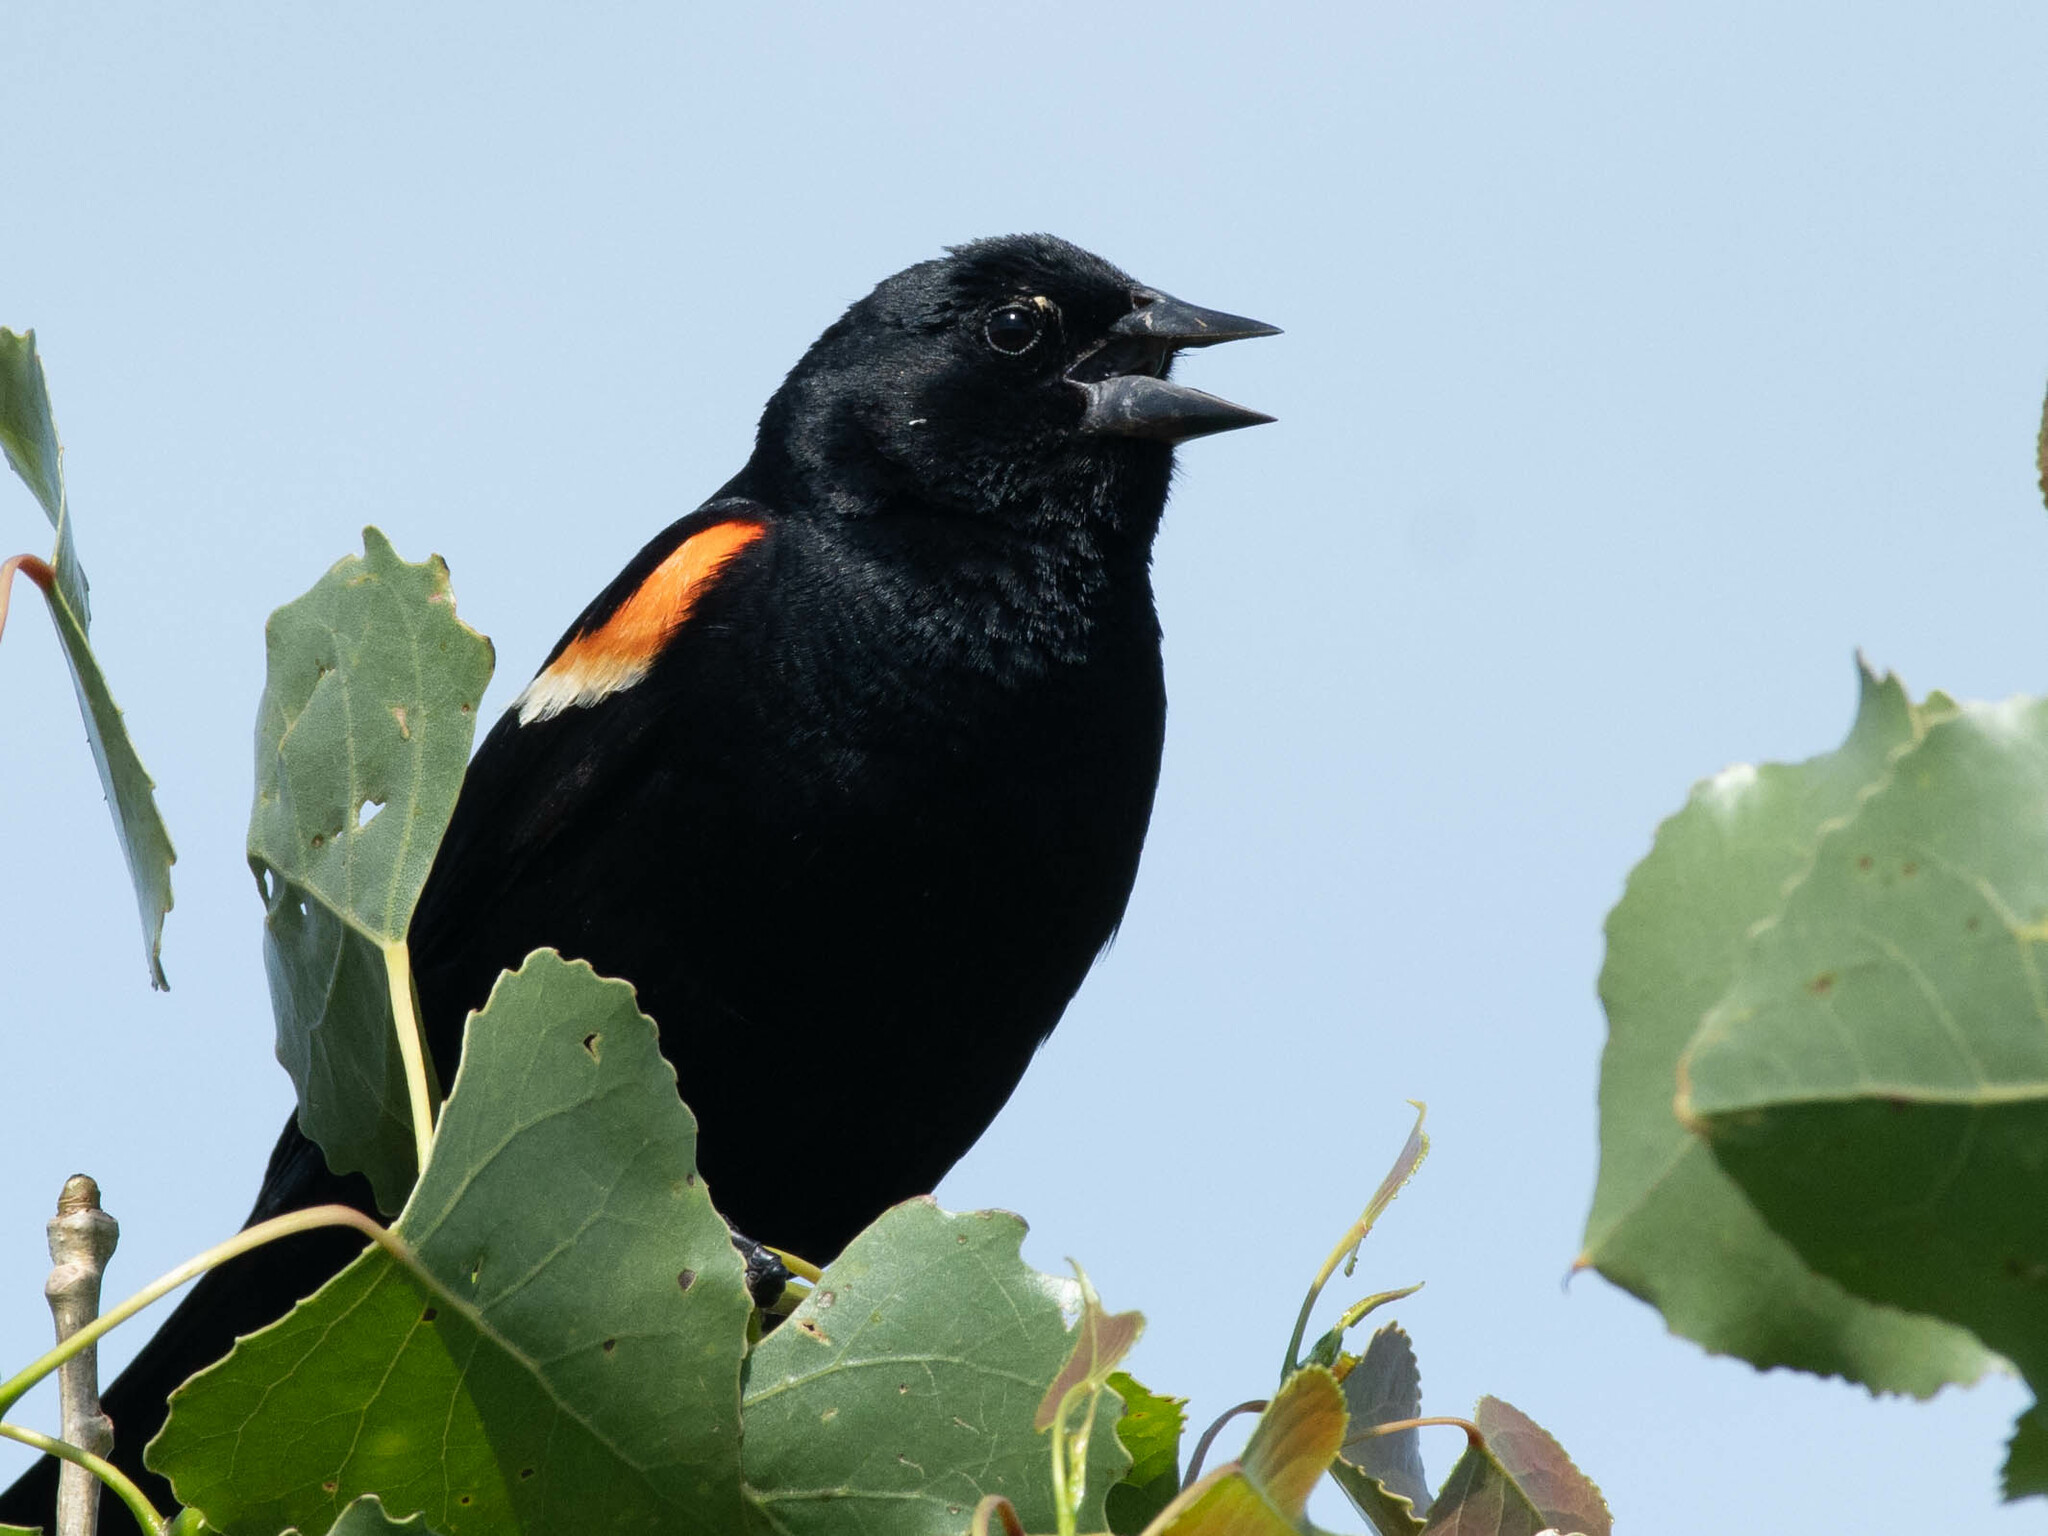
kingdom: Animalia
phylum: Chordata
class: Aves
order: Passeriformes
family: Icteridae
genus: Agelaius
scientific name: Agelaius phoeniceus
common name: Red-winged blackbird
